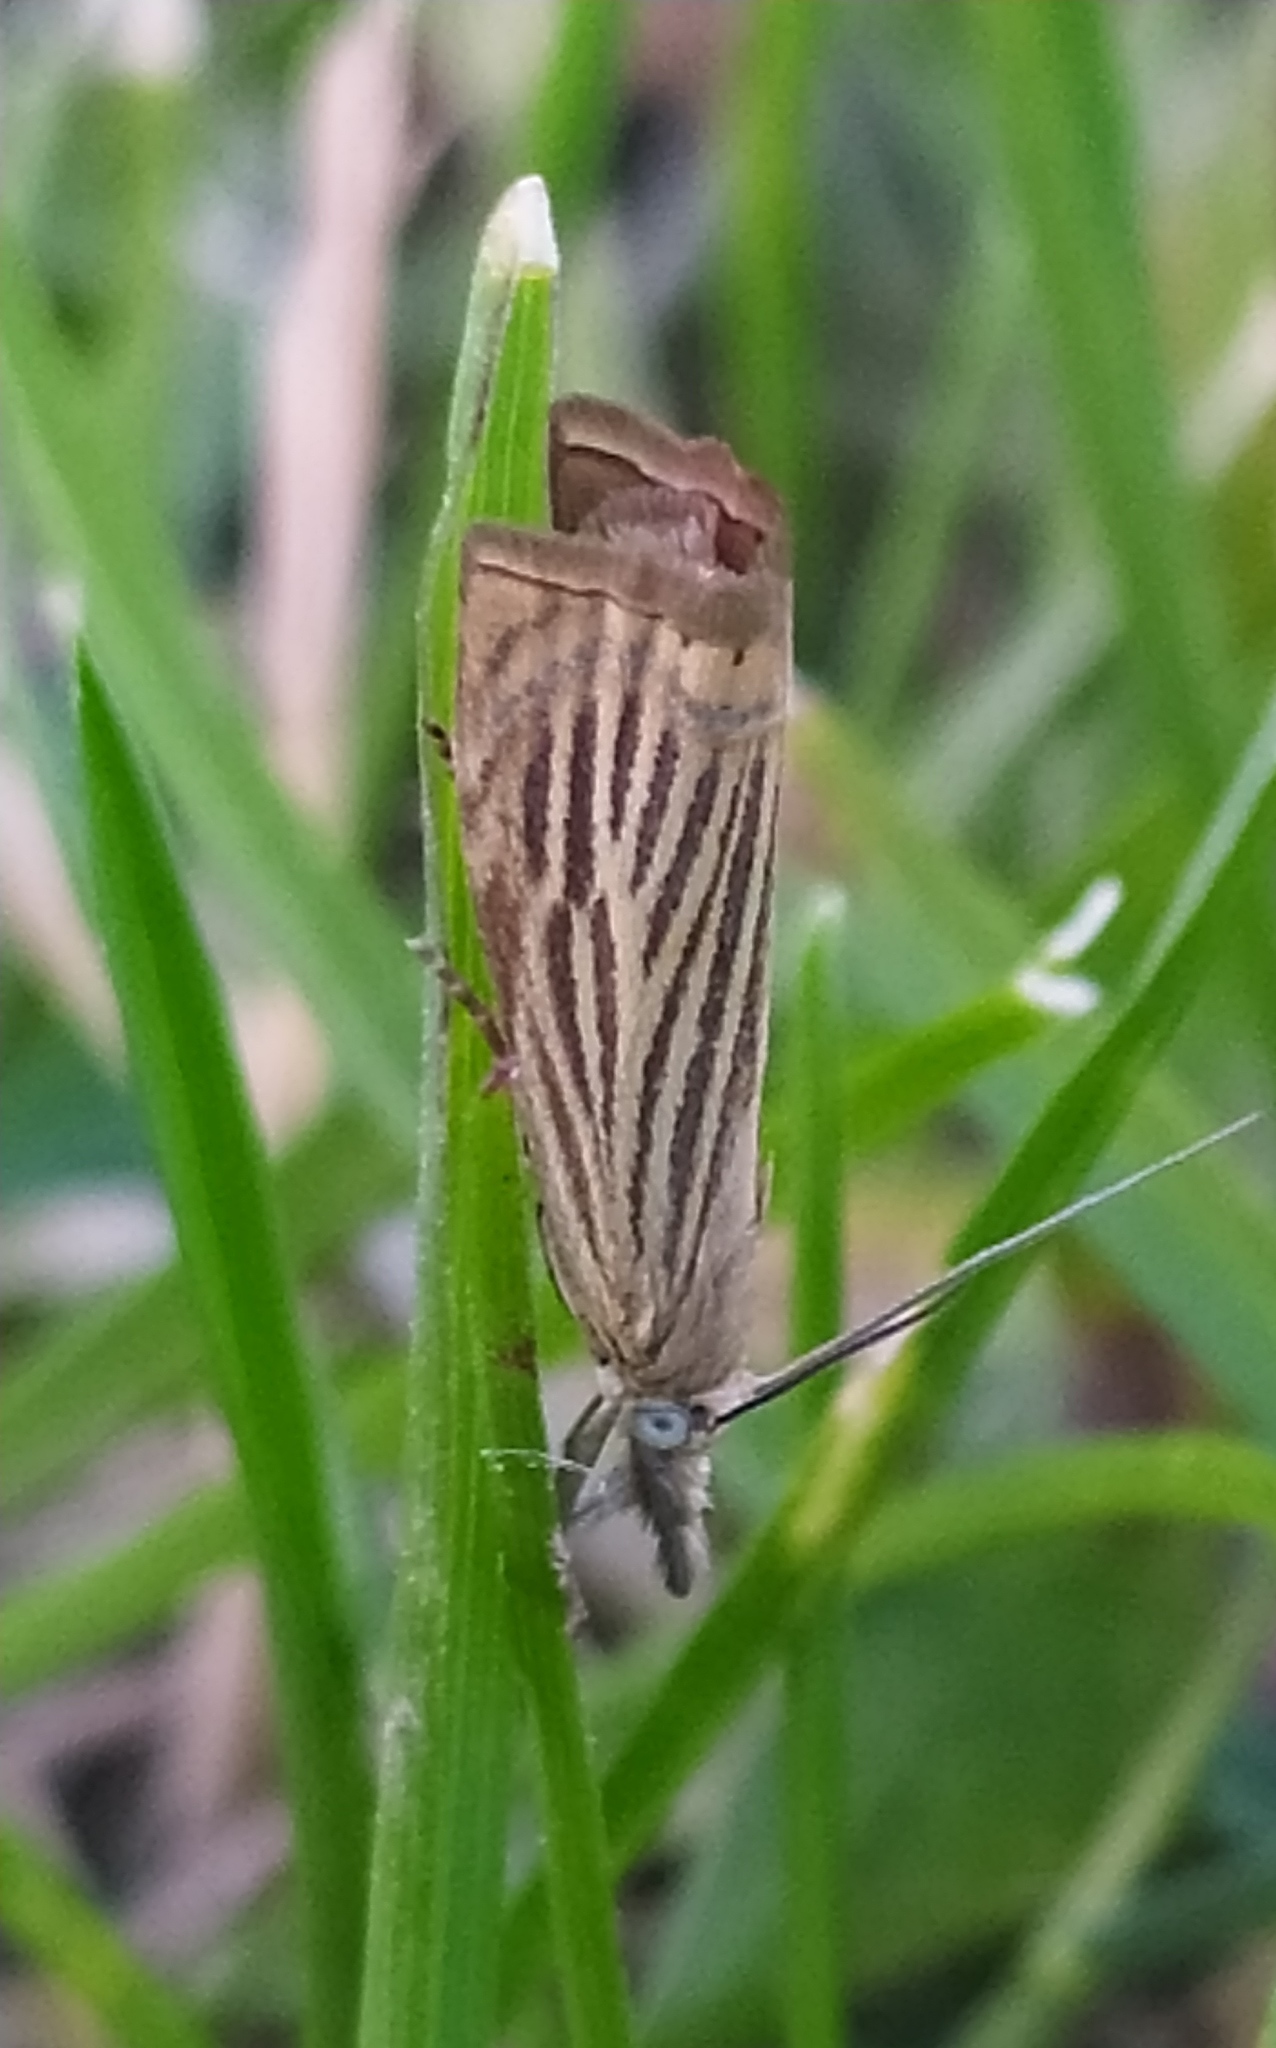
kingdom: Animalia
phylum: Arthropoda
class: Insecta
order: Lepidoptera
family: Crambidae
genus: Chrysoteuchia
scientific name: Chrysoteuchia culmella
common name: Garden grass-veneer
